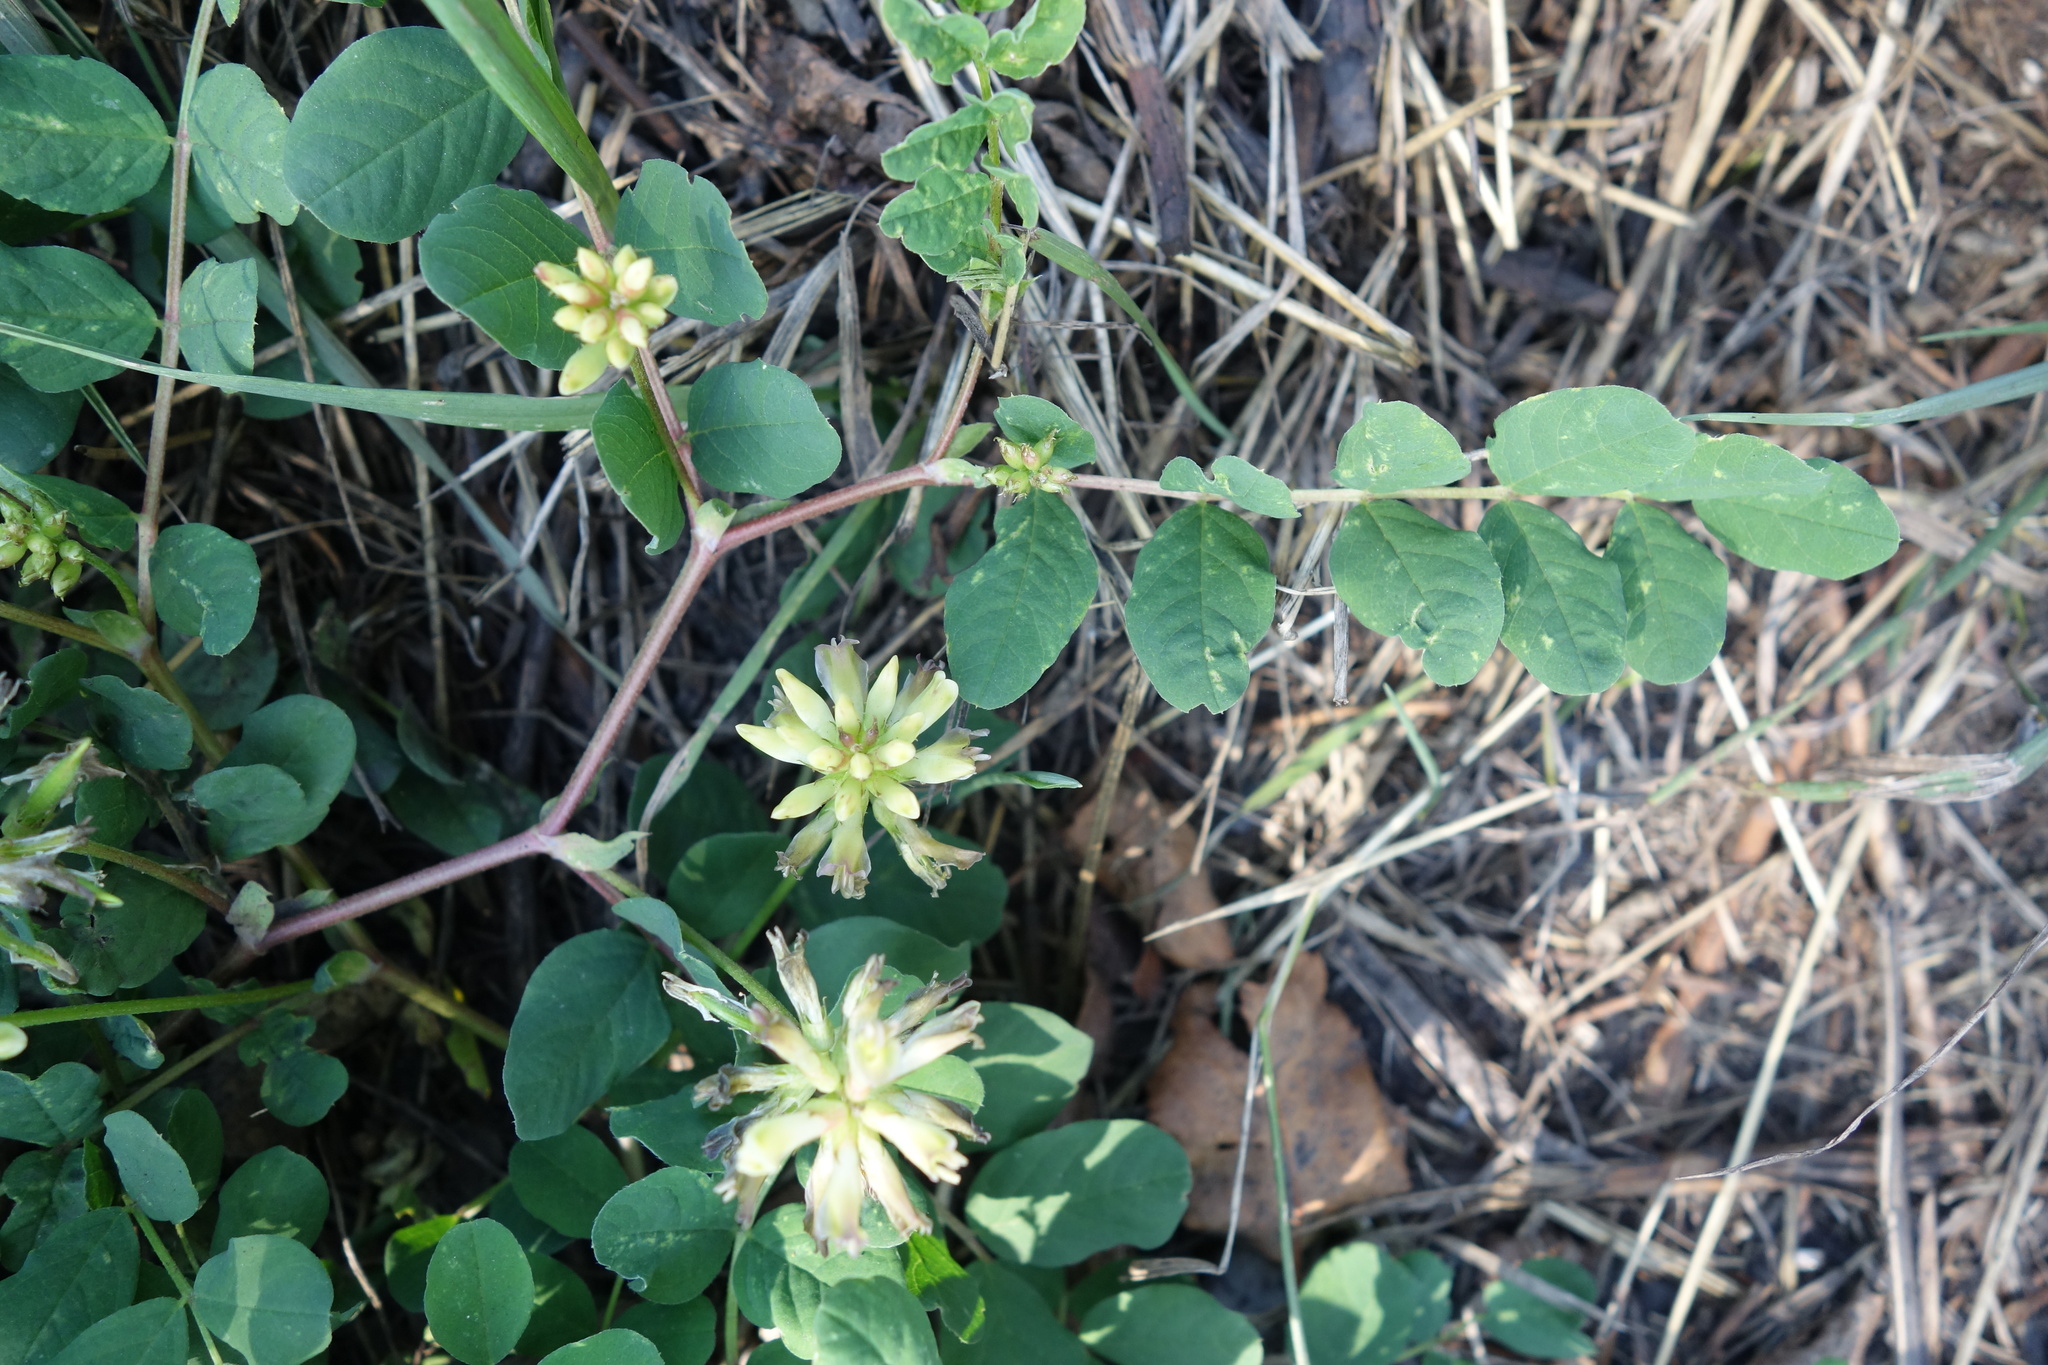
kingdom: Plantae
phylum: Tracheophyta
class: Magnoliopsida
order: Fabales
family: Fabaceae
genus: Astragalus
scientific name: Astragalus glycyphyllos
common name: Wild liquorice
